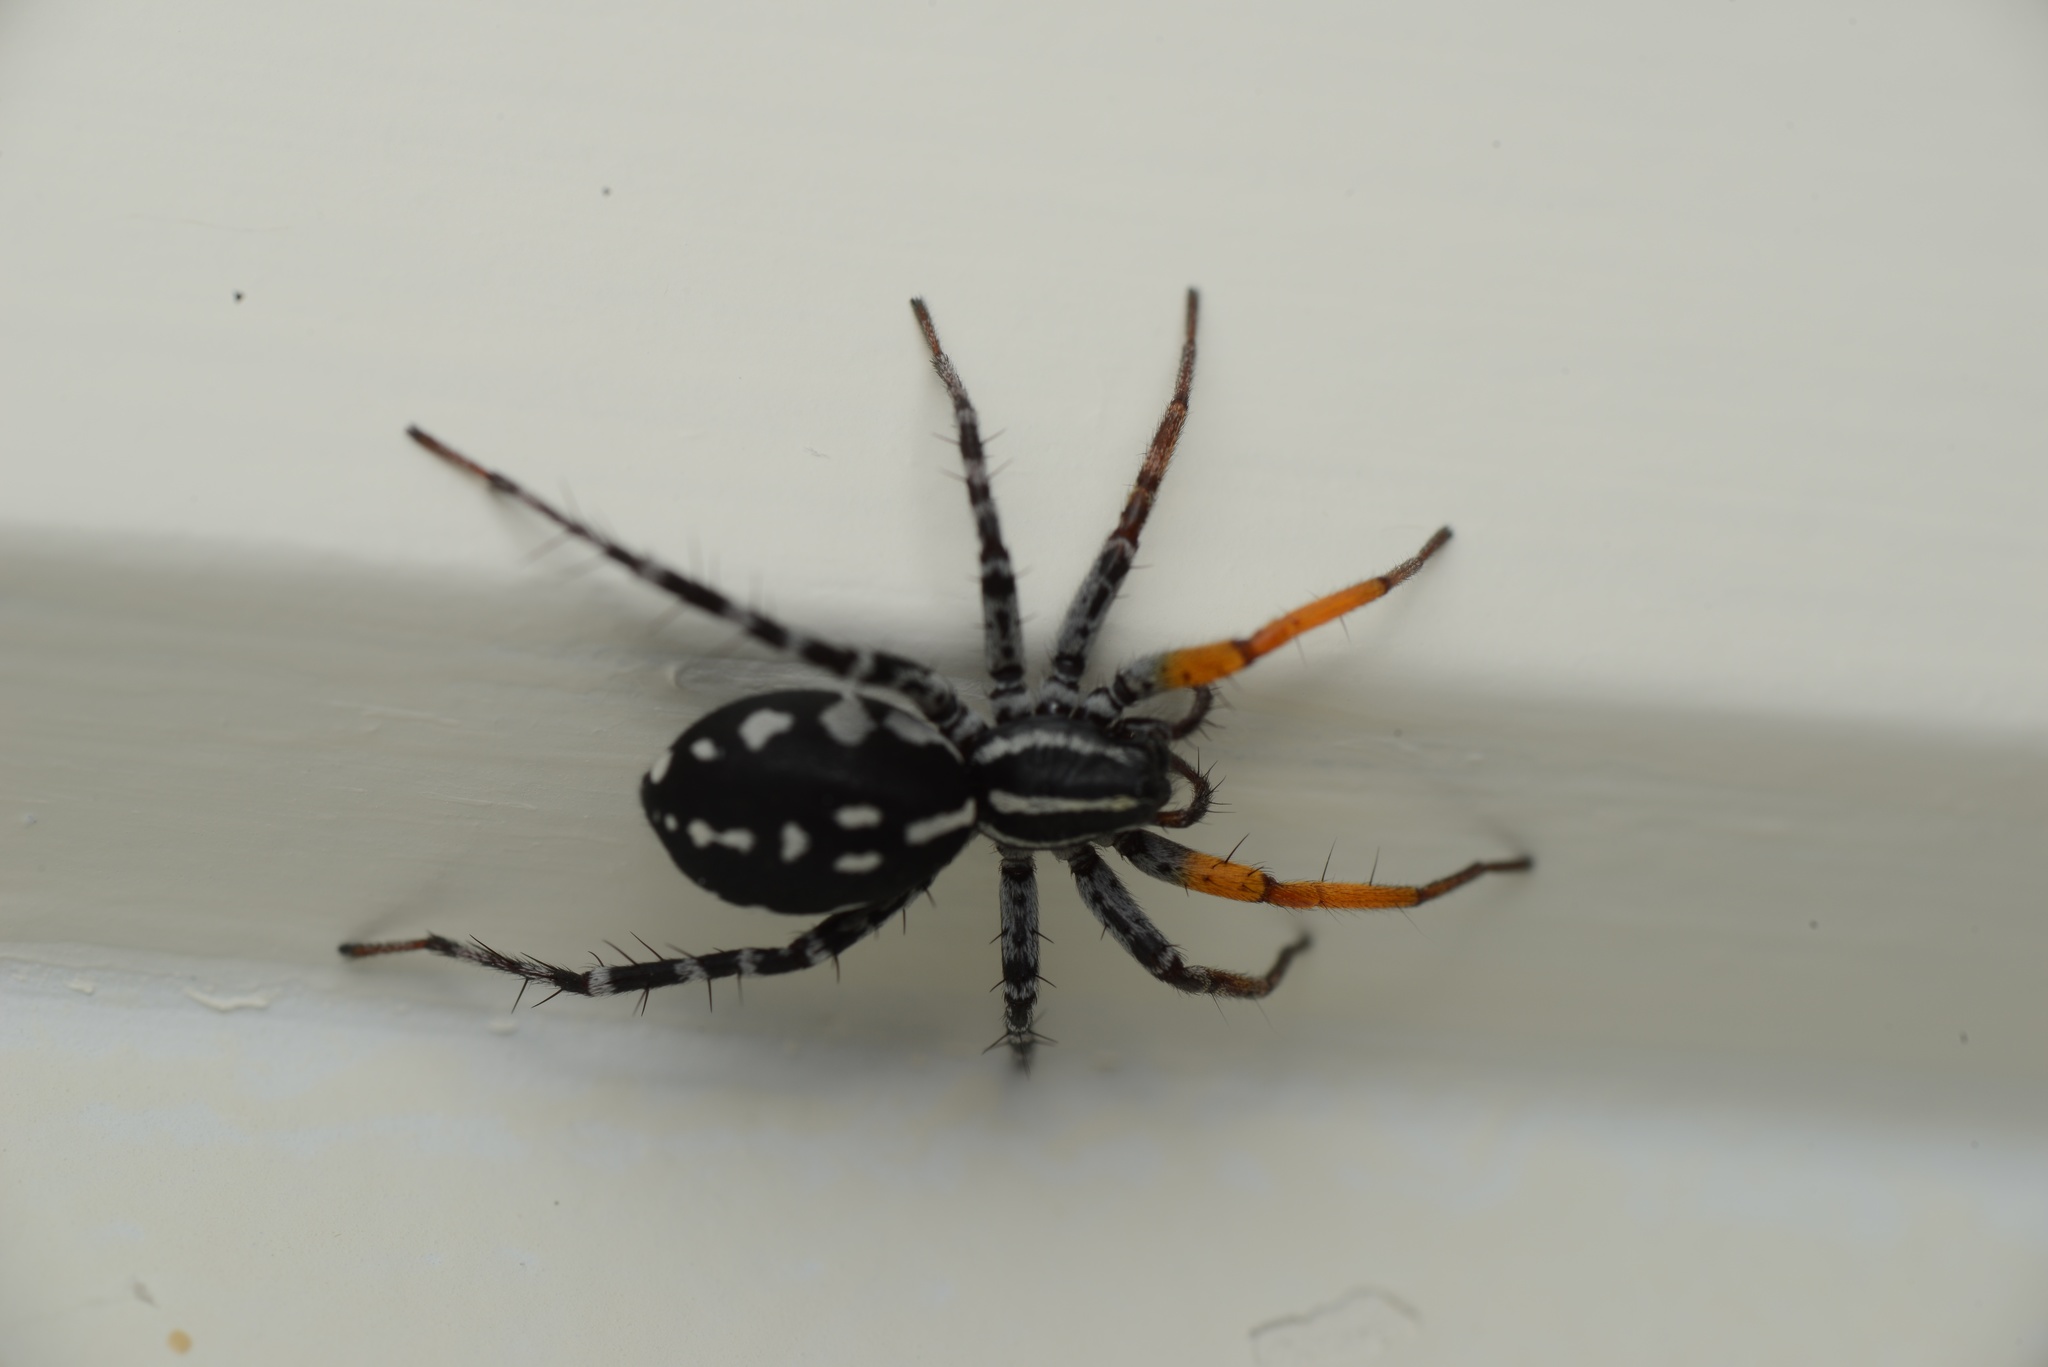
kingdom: Animalia
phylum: Arthropoda
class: Arachnida
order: Araneae
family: Corinnidae
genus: Nyssus
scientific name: Nyssus coloripes
